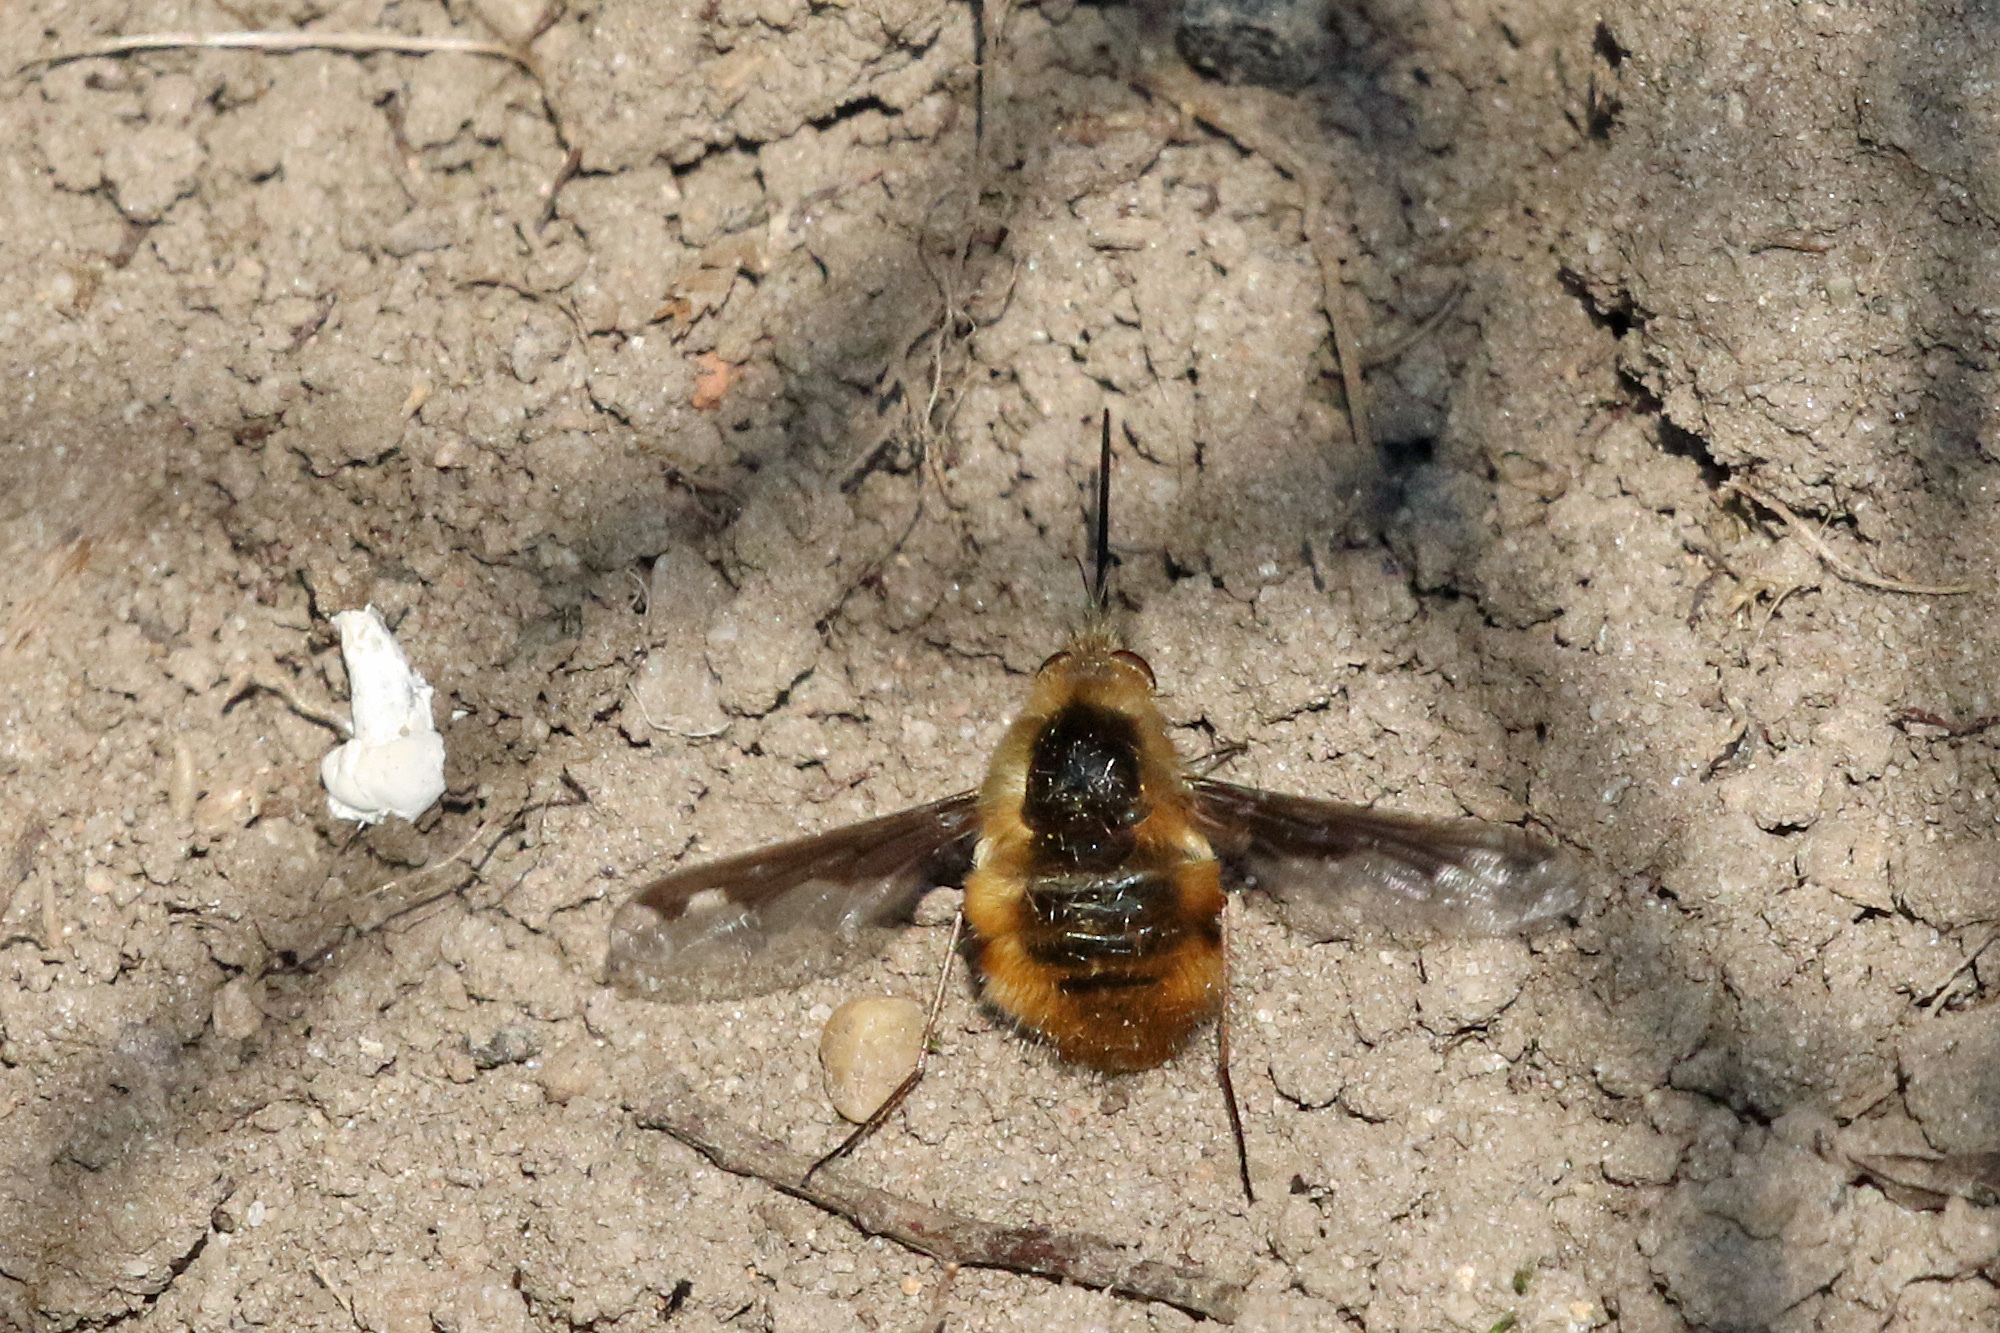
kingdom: Animalia
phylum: Arthropoda
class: Insecta
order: Diptera
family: Bombyliidae
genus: Bombylius
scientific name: Bombylius major
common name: Bee fly
